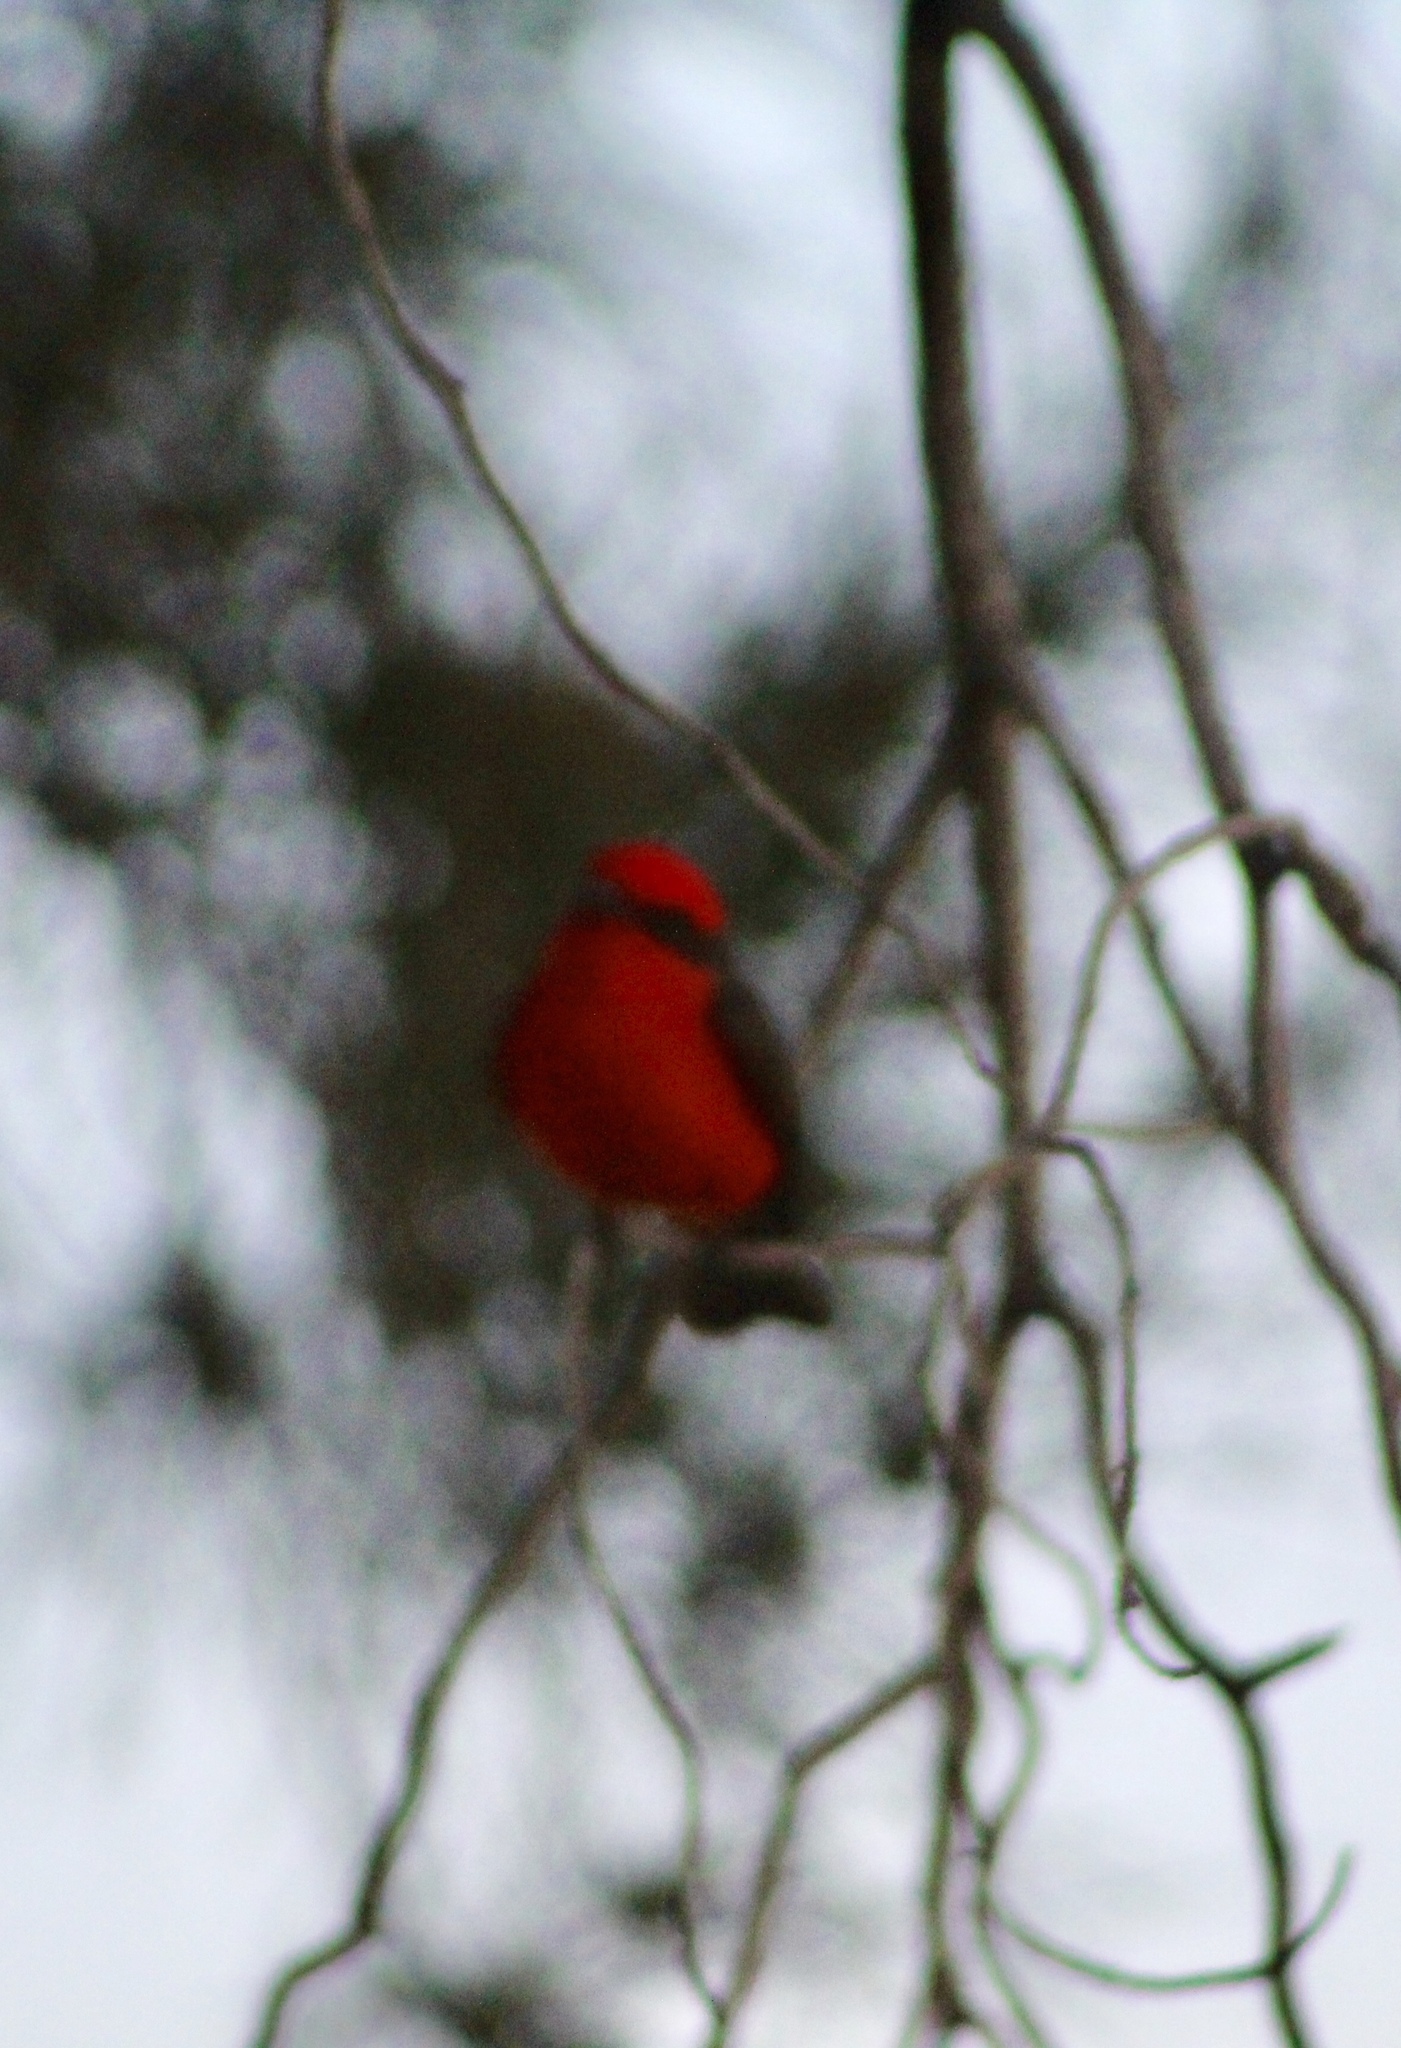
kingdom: Animalia
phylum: Chordata
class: Aves
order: Passeriformes
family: Tyrannidae
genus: Pyrocephalus
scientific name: Pyrocephalus rubinus
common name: Vermilion flycatcher
